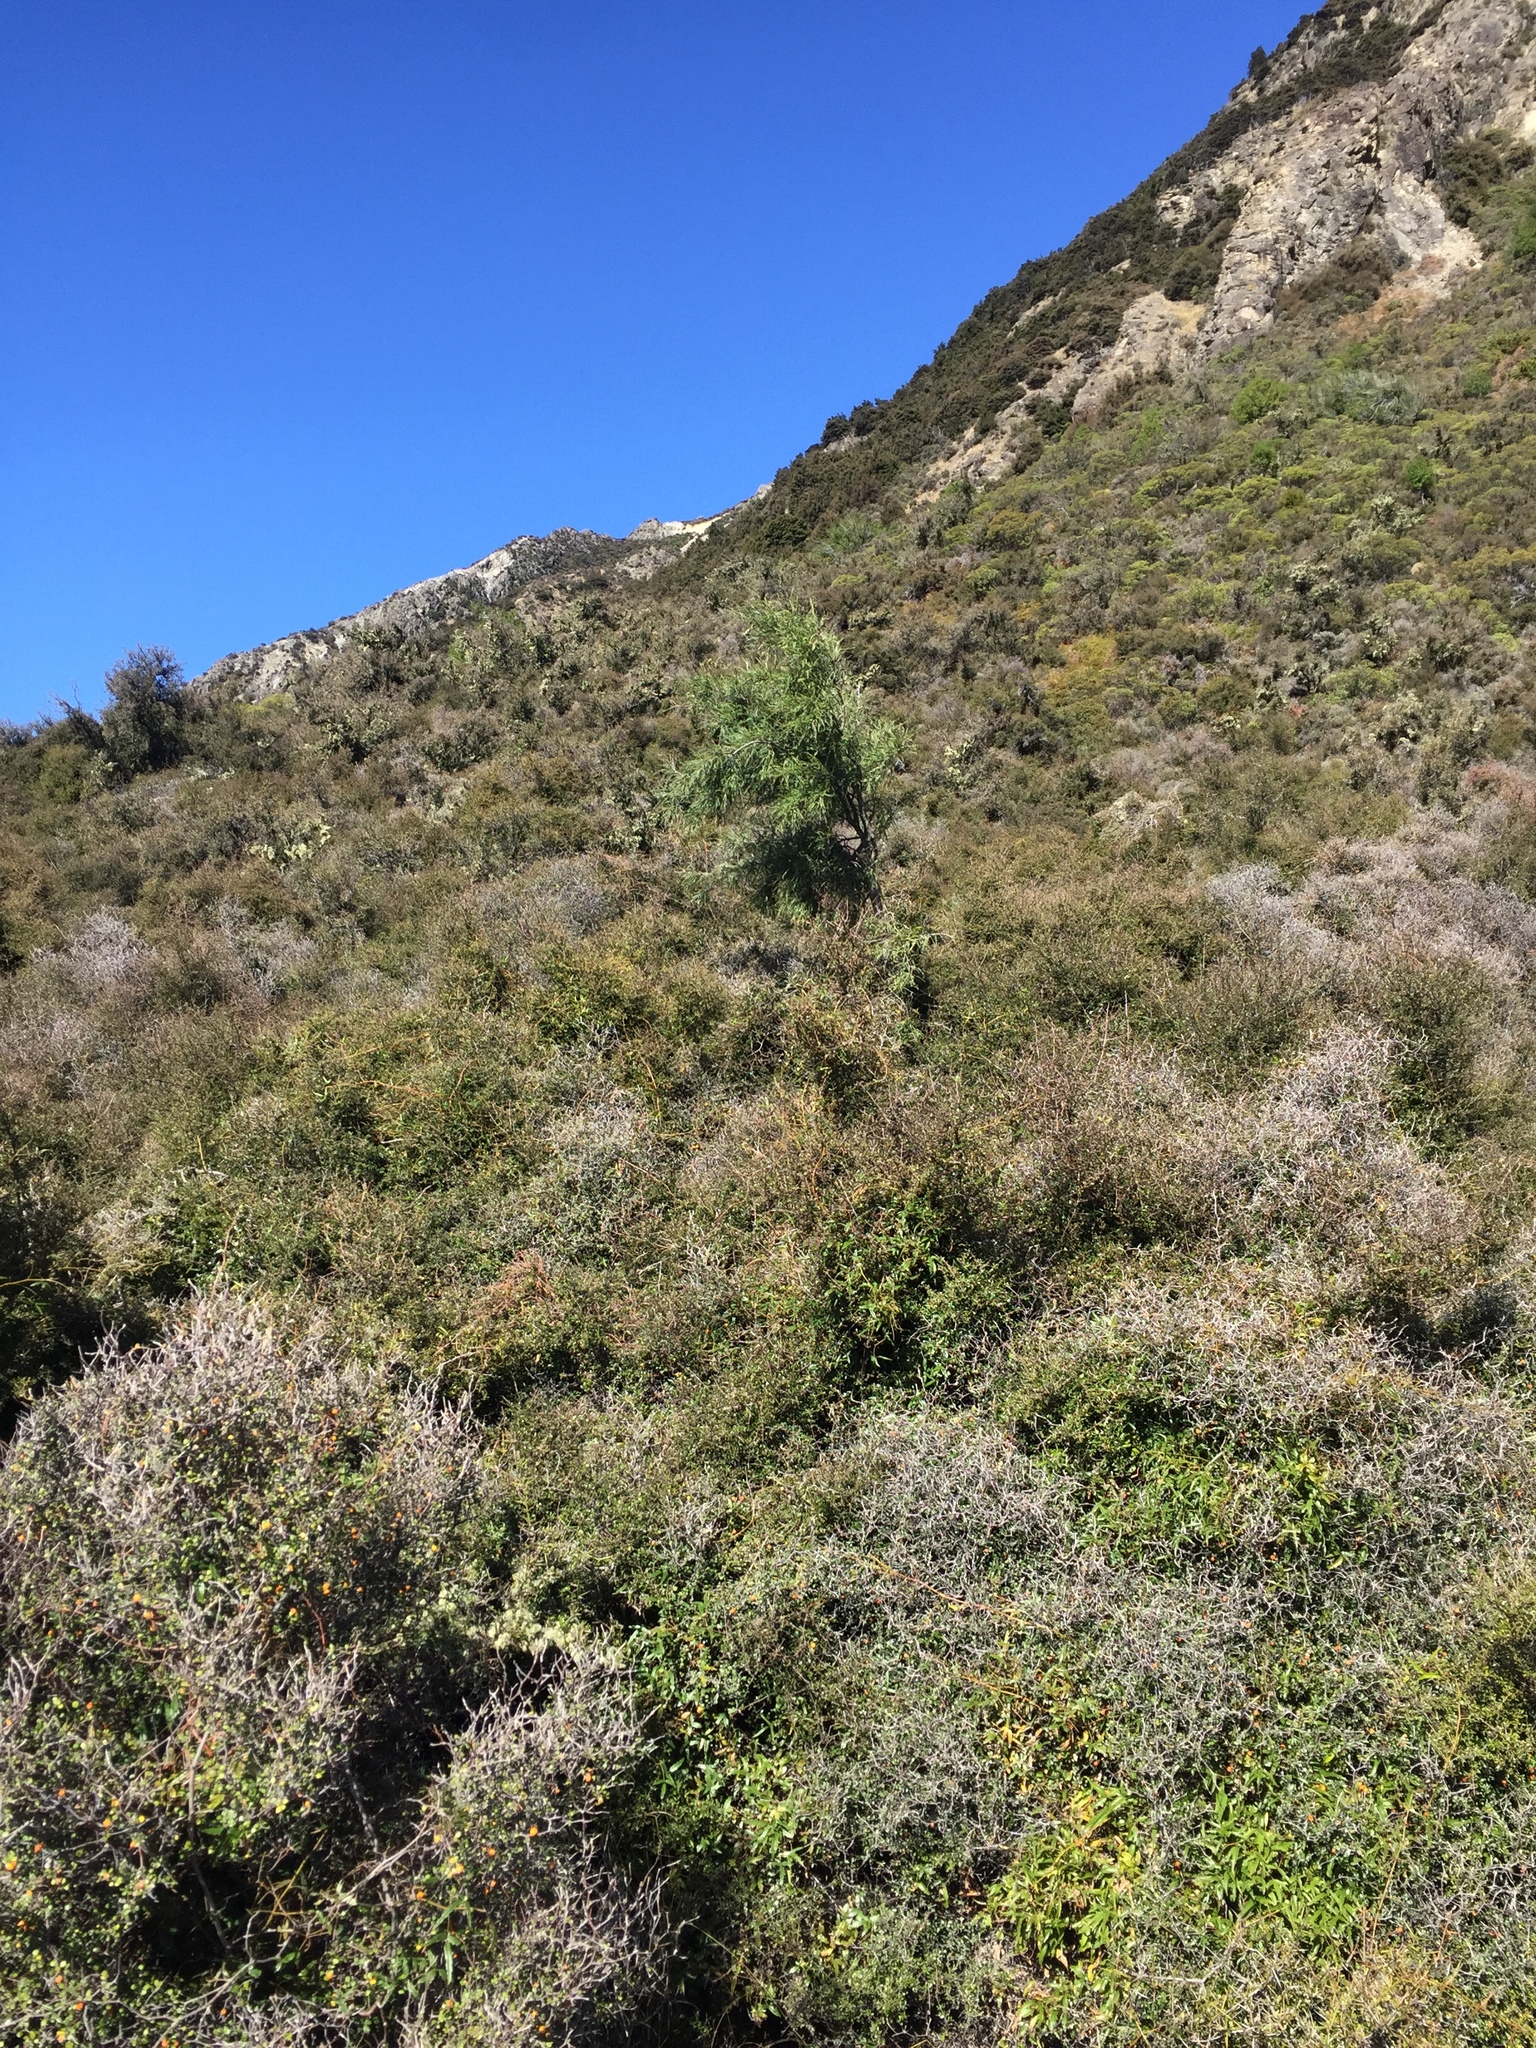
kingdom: Plantae
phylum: Tracheophyta
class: Magnoliopsida
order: Fabales
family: Fabaceae
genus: Sophora
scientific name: Sophora microphylla
